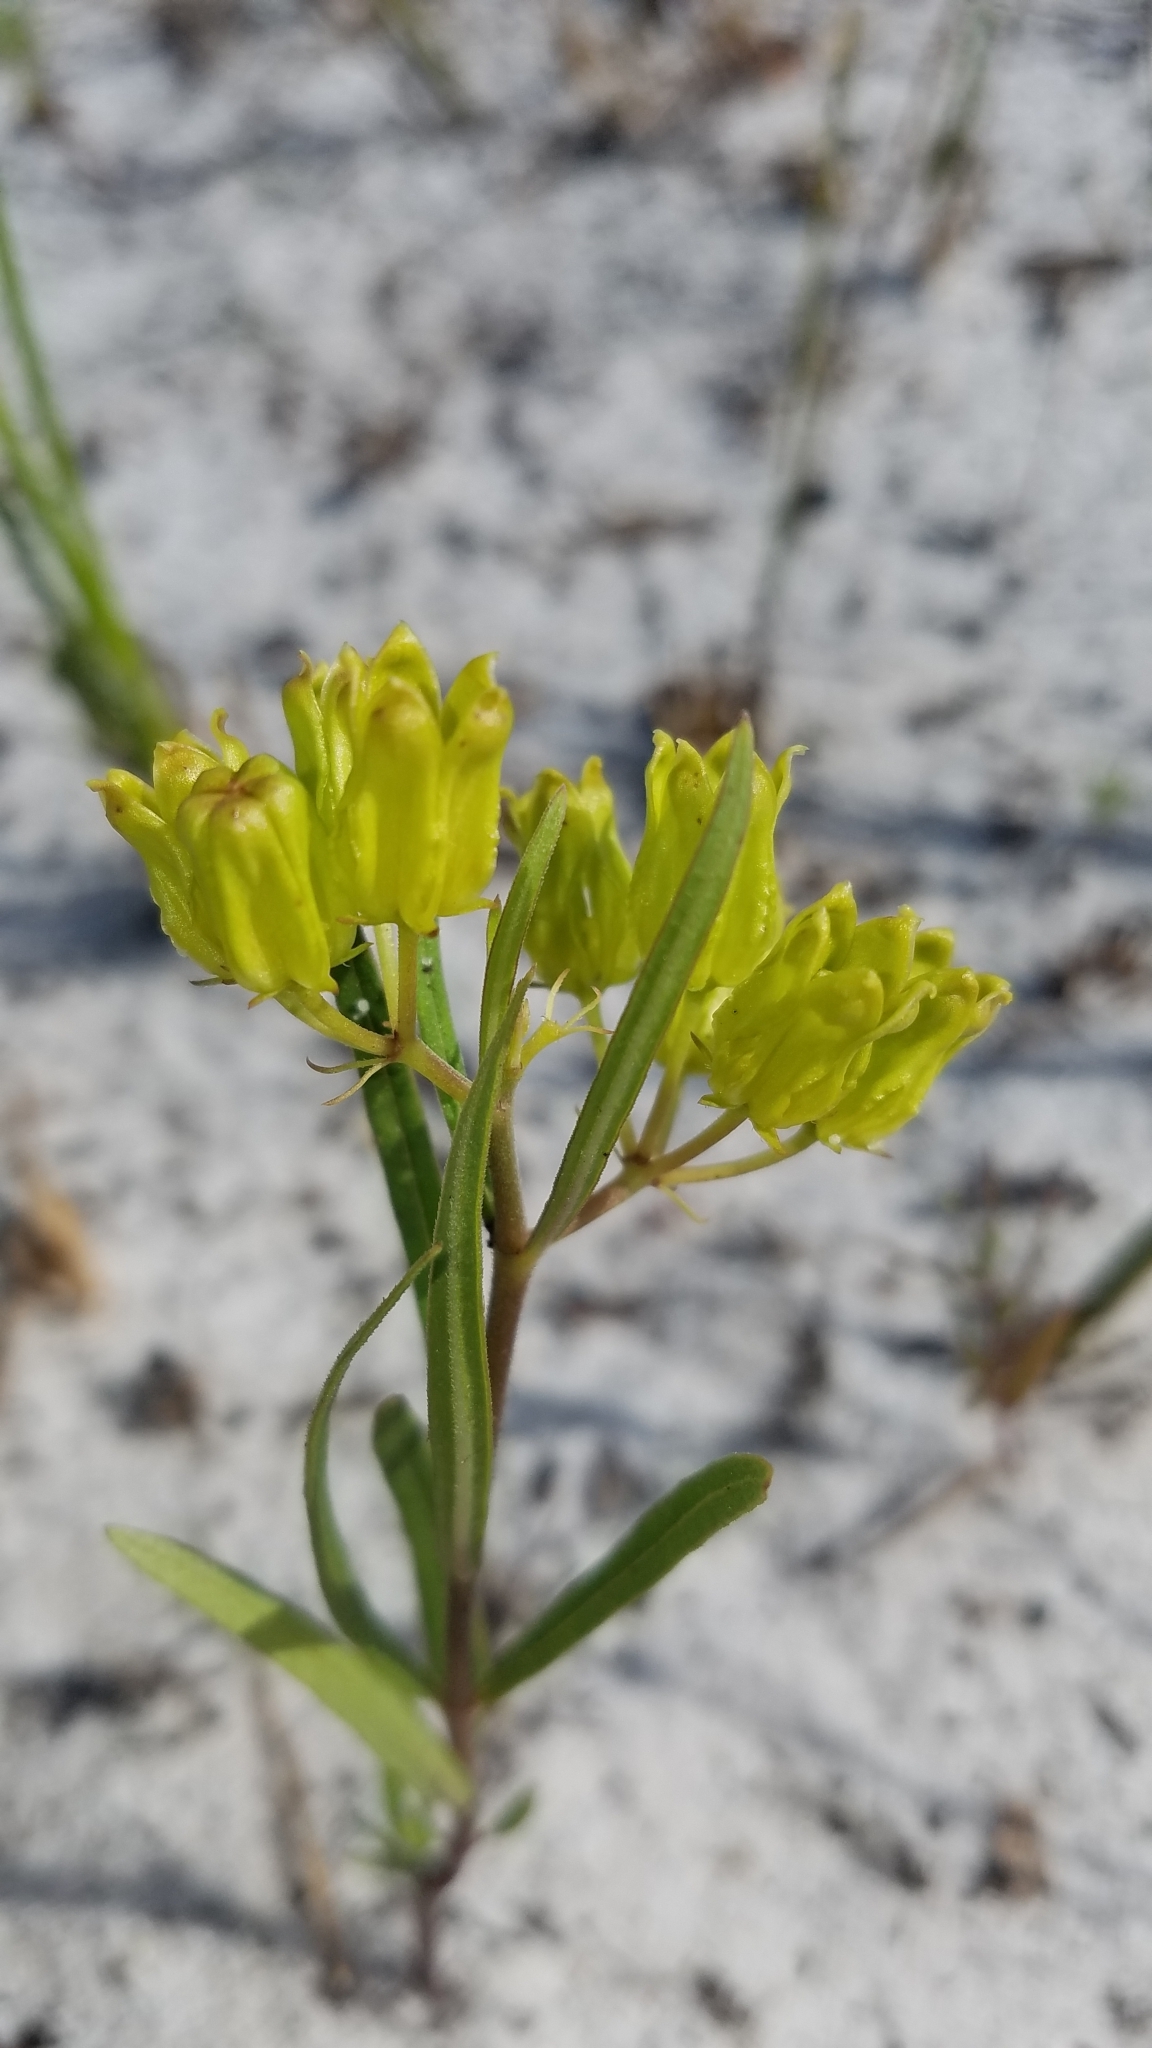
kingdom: Plantae
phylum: Tracheophyta
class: Magnoliopsida
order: Gentianales
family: Apocynaceae
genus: Asclepias
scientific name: Asclepias pedicellata
